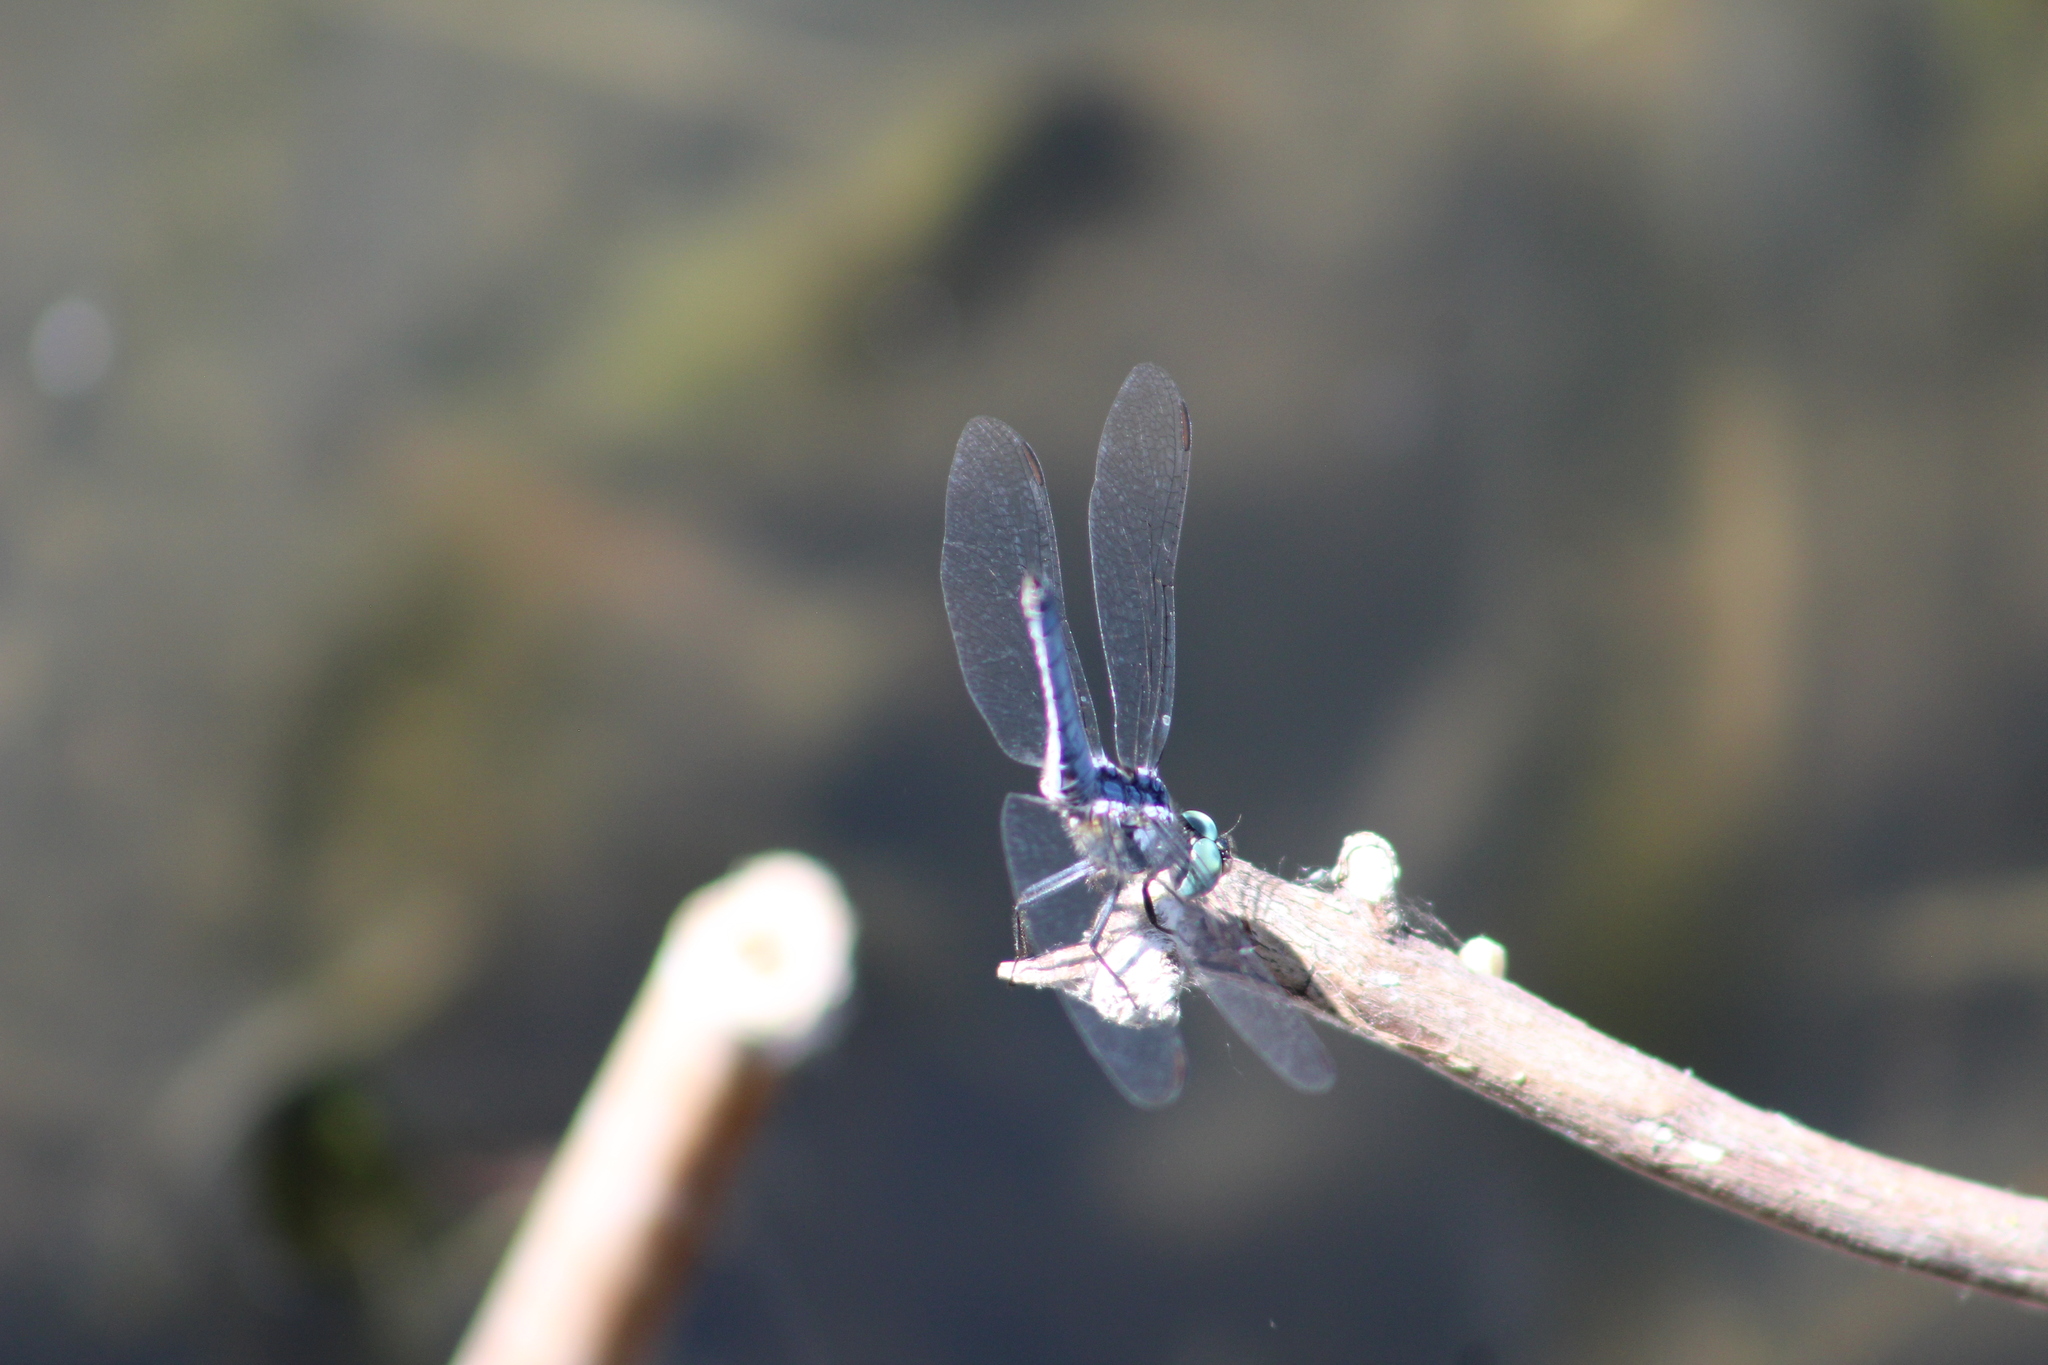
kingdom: Animalia
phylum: Arthropoda
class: Insecta
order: Odonata
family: Libellulidae
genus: Pachydiplax
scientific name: Pachydiplax longipennis
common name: Blue dasher
